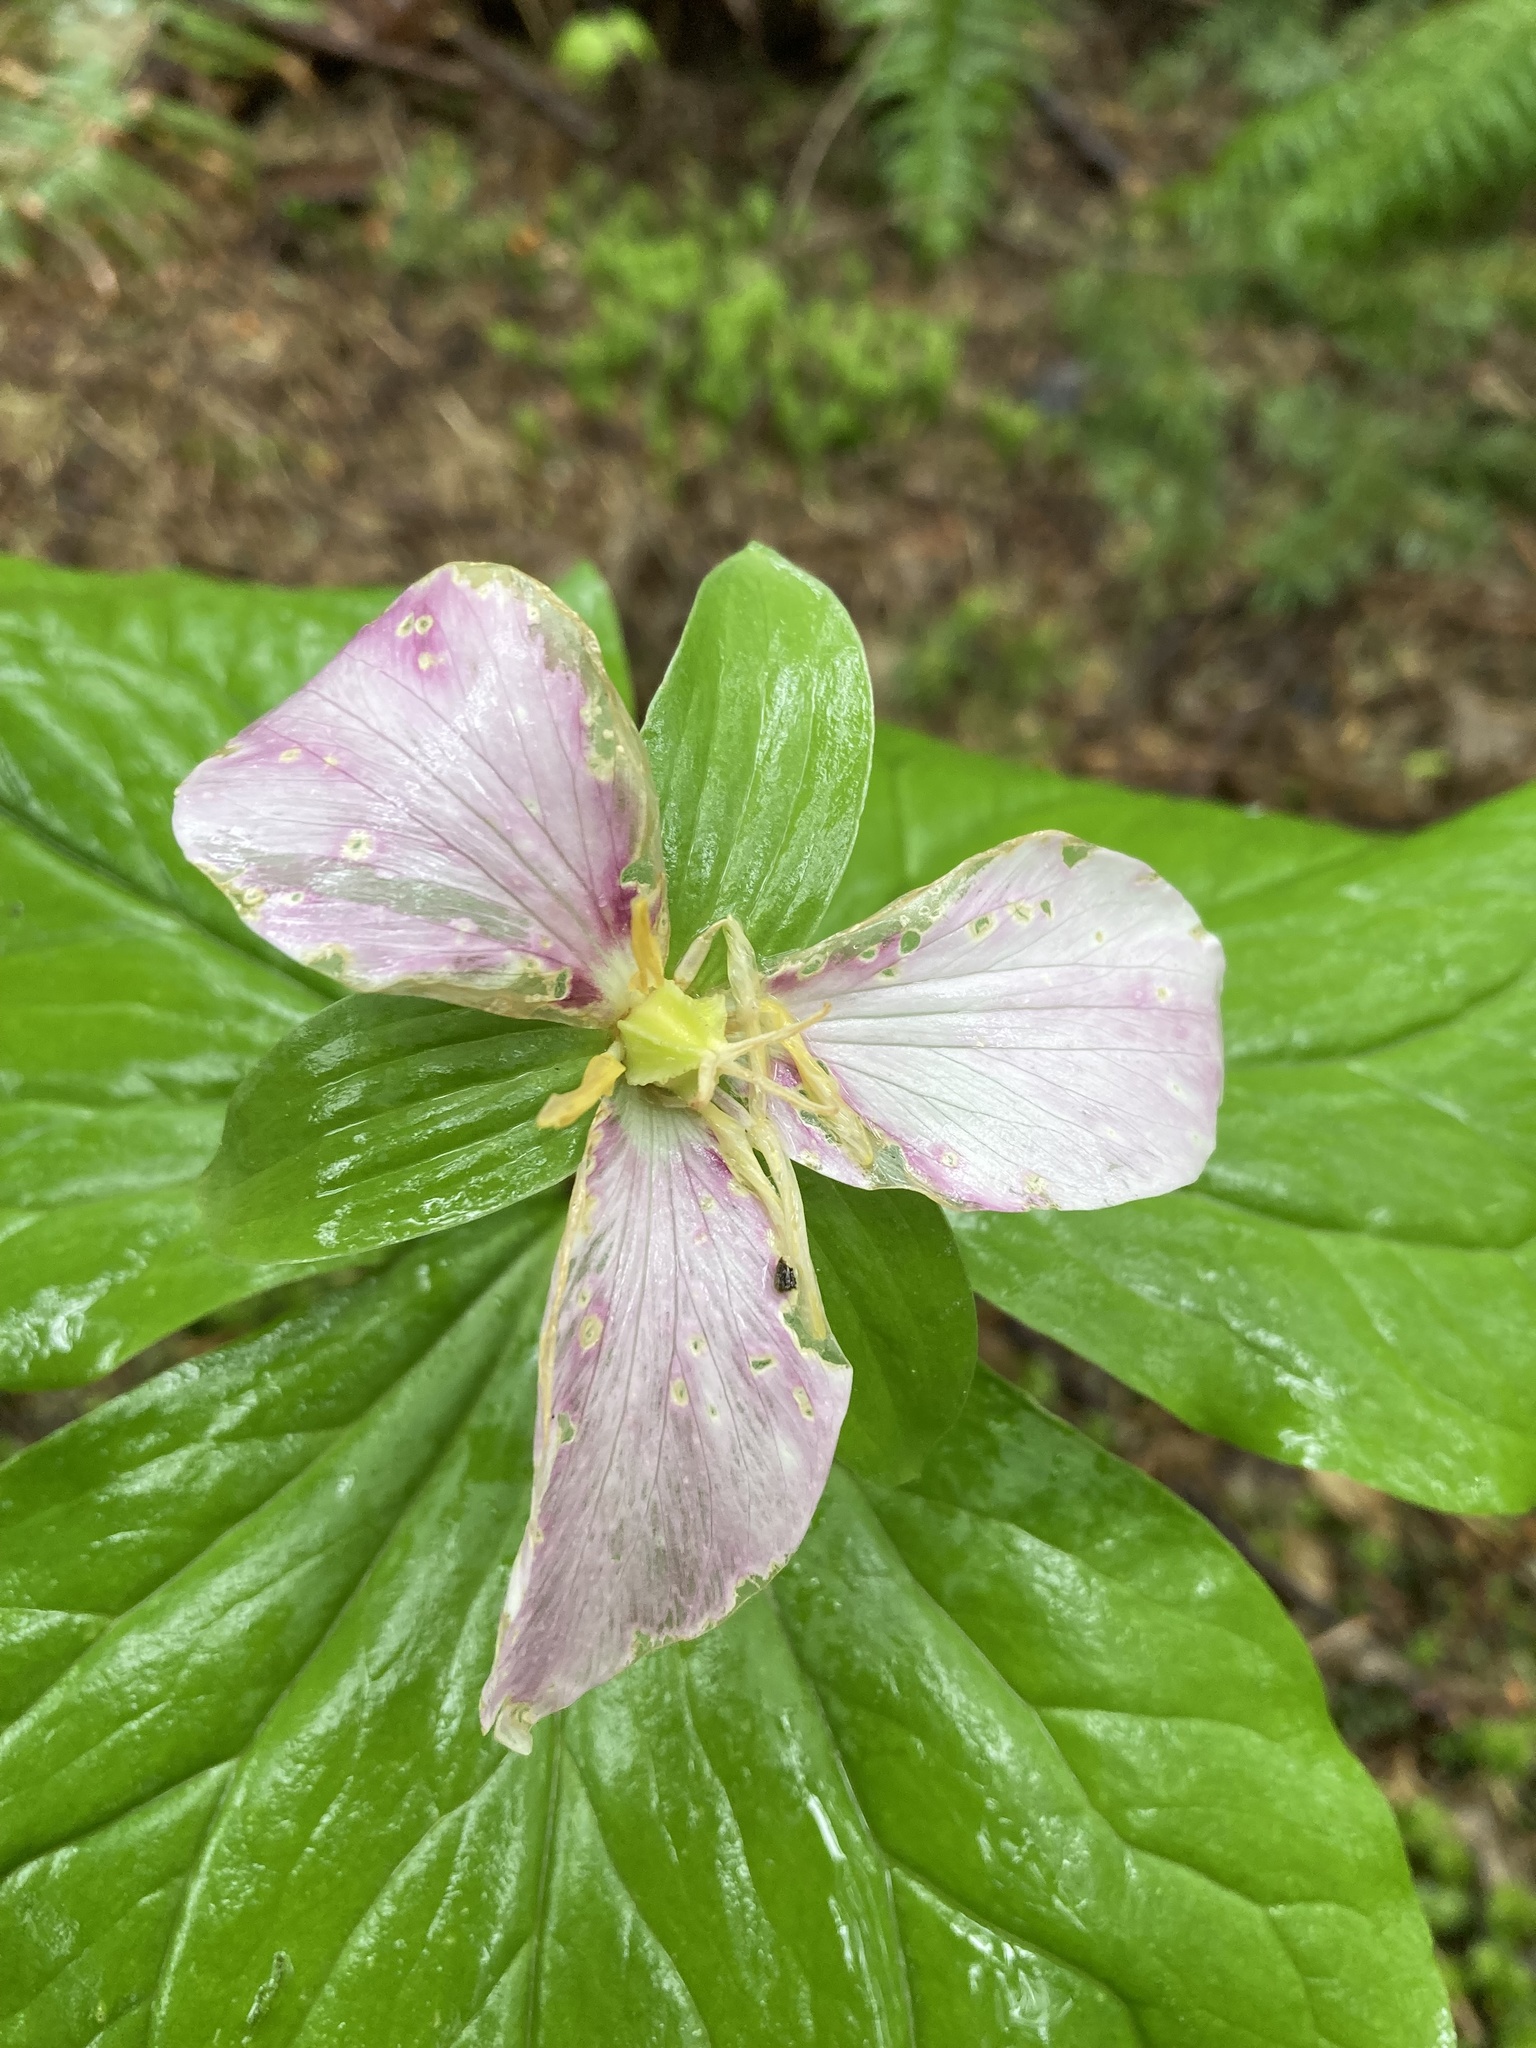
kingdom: Plantae
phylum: Tracheophyta
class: Liliopsida
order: Liliales
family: Melanthiaceae
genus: Trillium
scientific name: Trillium ovatum
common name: Pacific trillium
